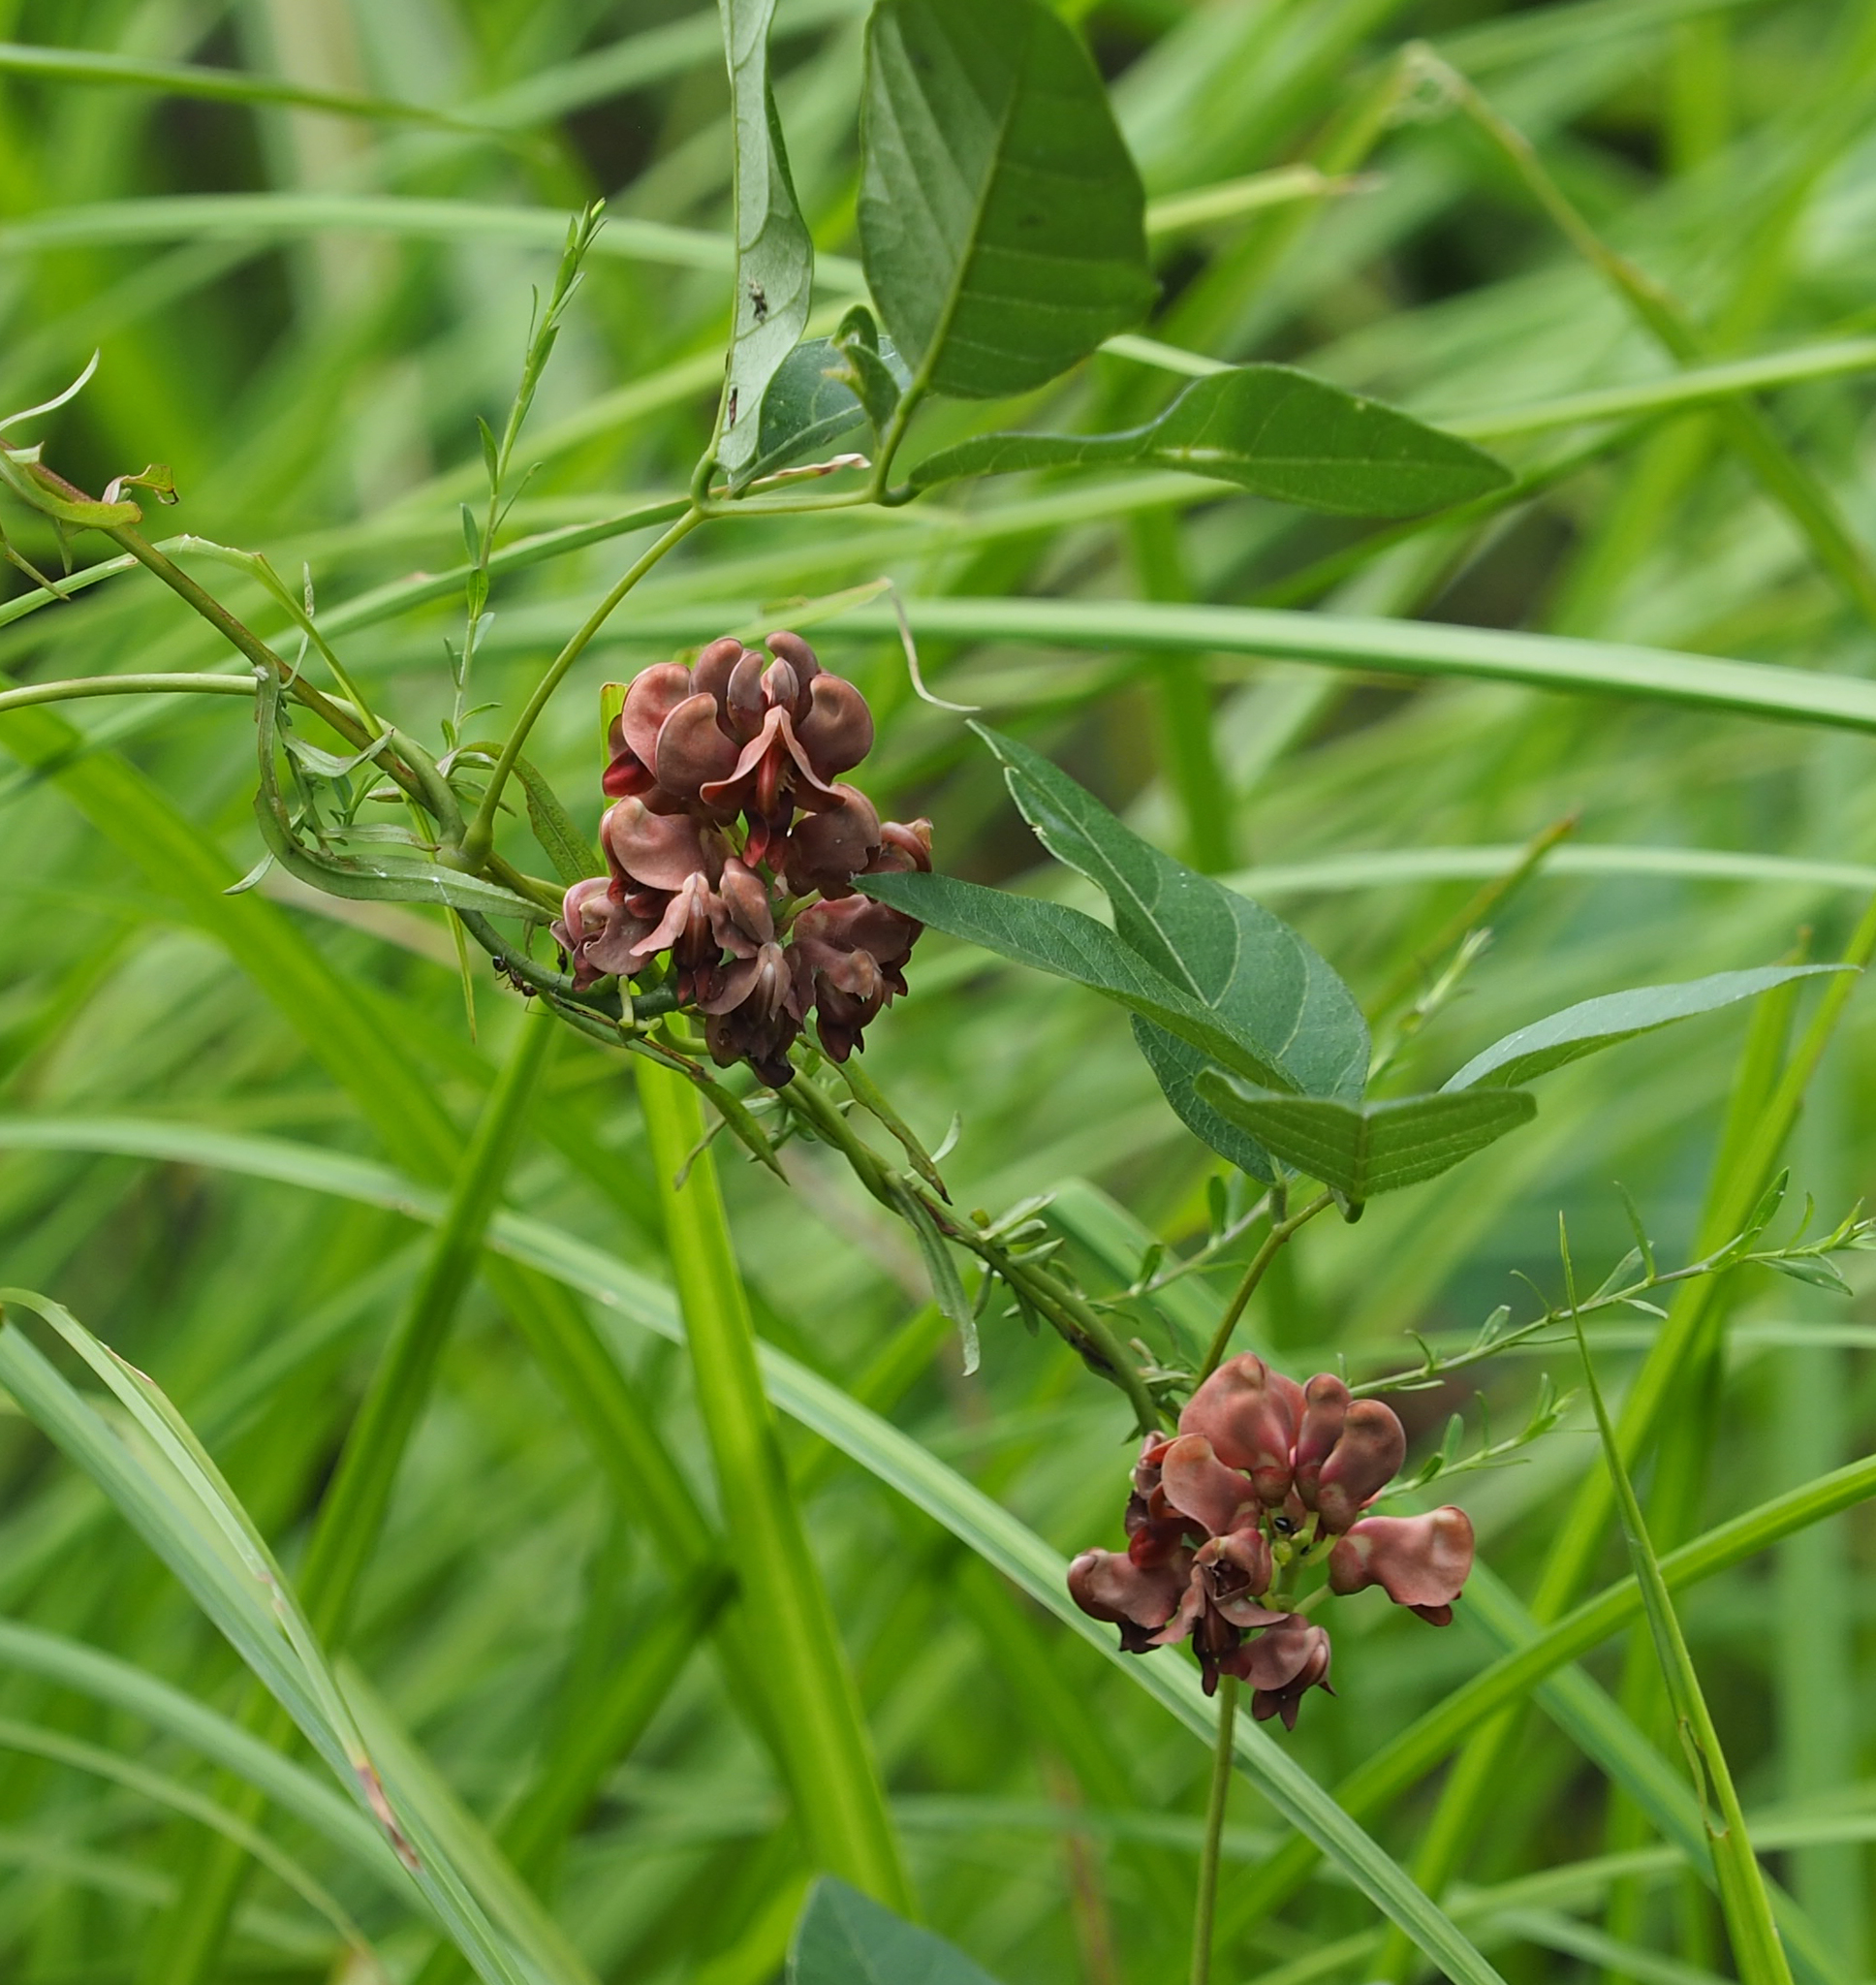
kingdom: Plantae
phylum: Tracheophyta
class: Magnoliopsida
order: Fabales
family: Fabaceae
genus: Apios
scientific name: Apios americana
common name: American potato-bean
